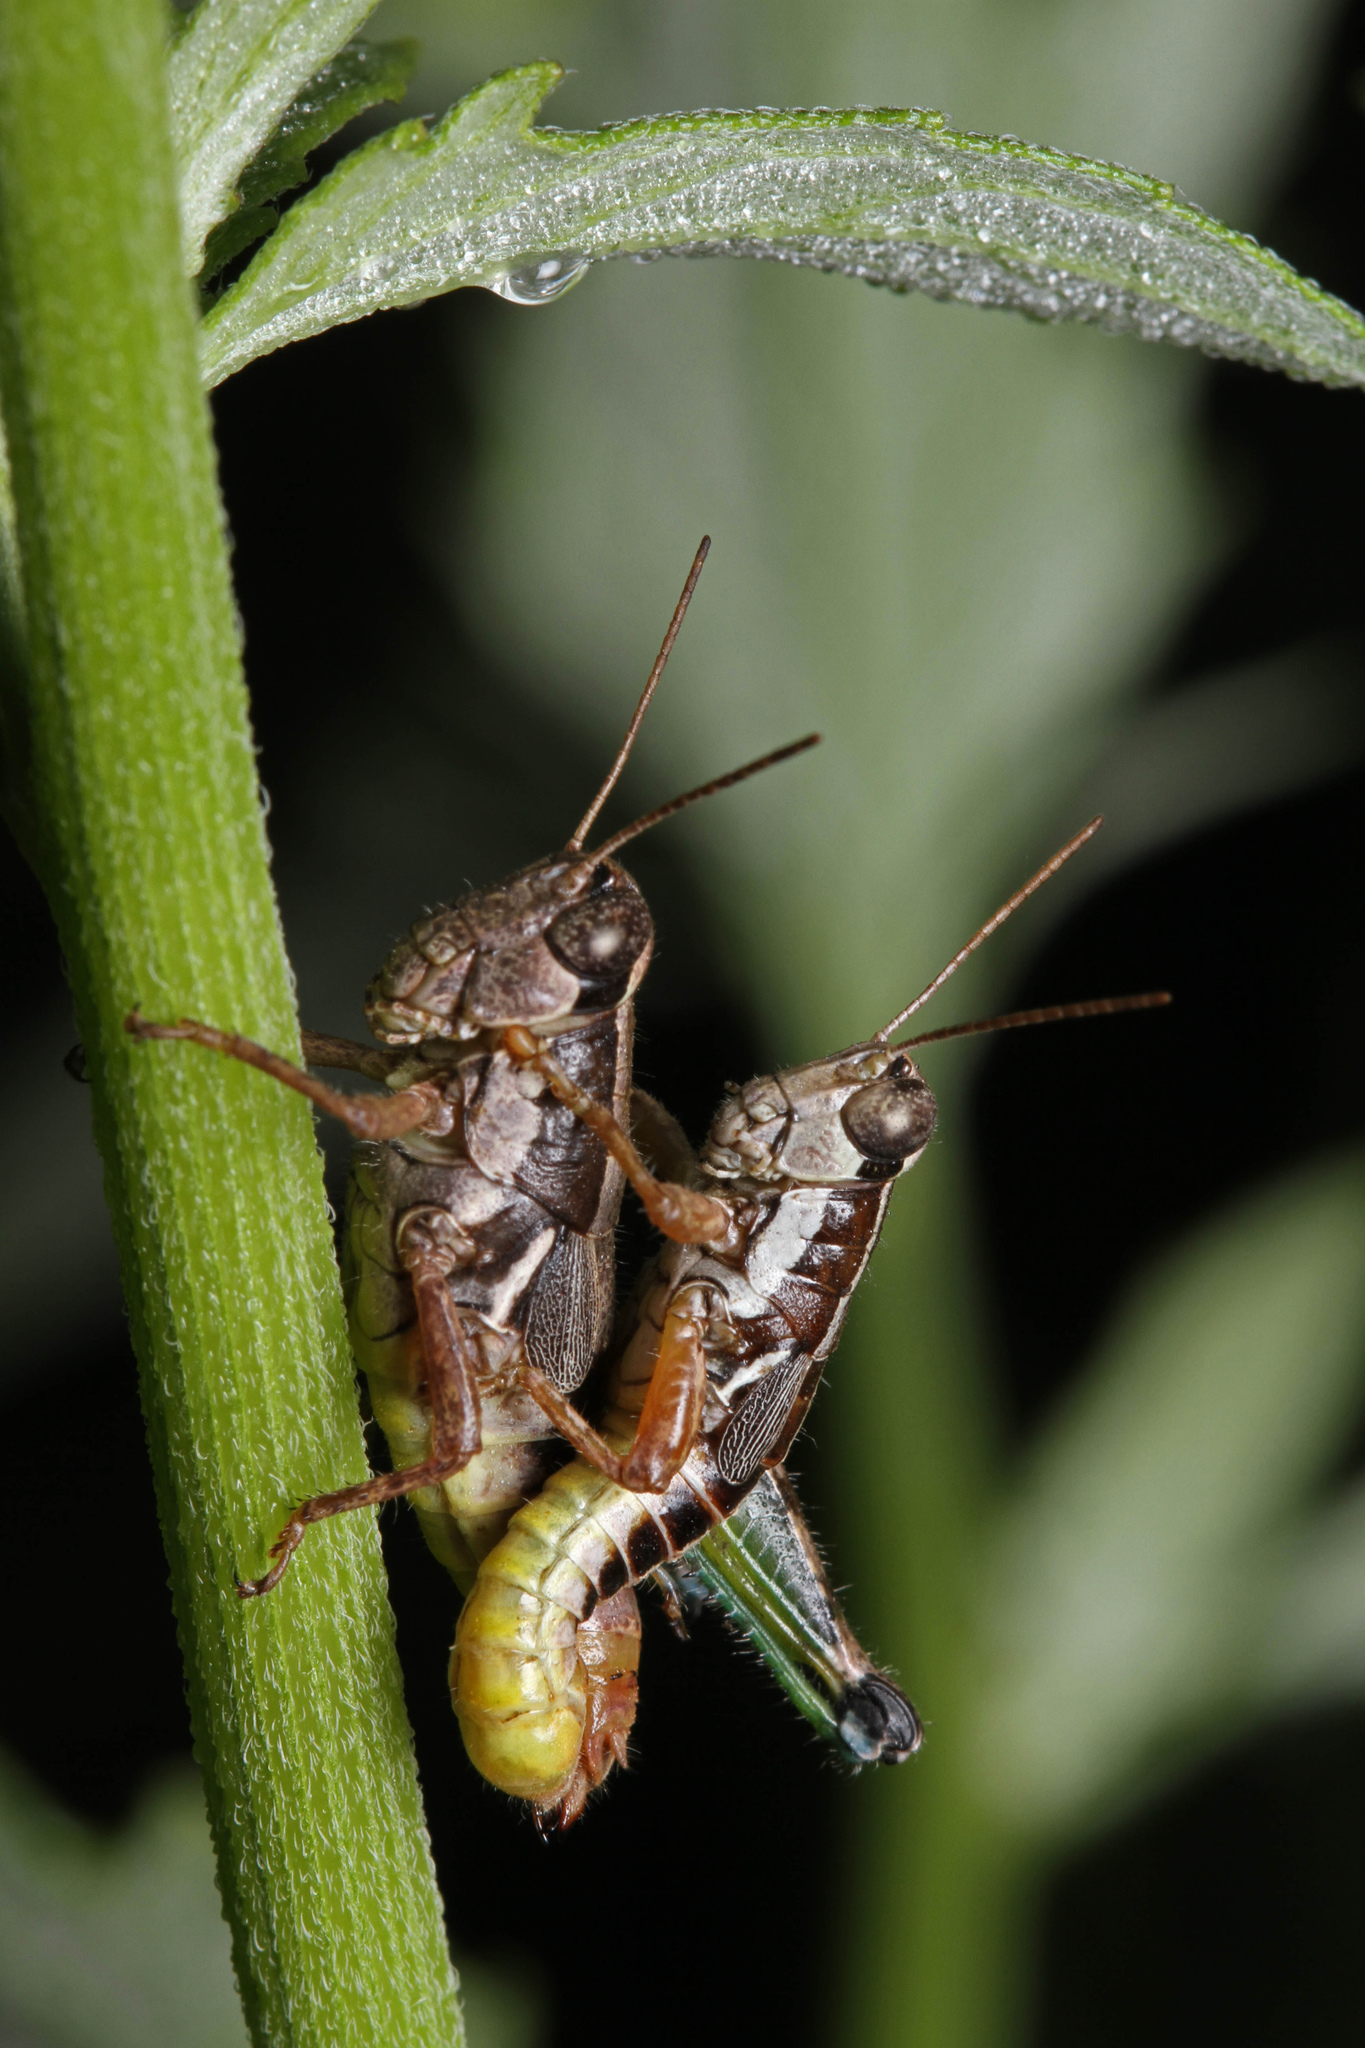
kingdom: Animalia
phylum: Arthropoda
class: Insecta
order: Orthoptera
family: Acrididae
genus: Phaedrotettix
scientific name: Phaedrotettix palmeri
